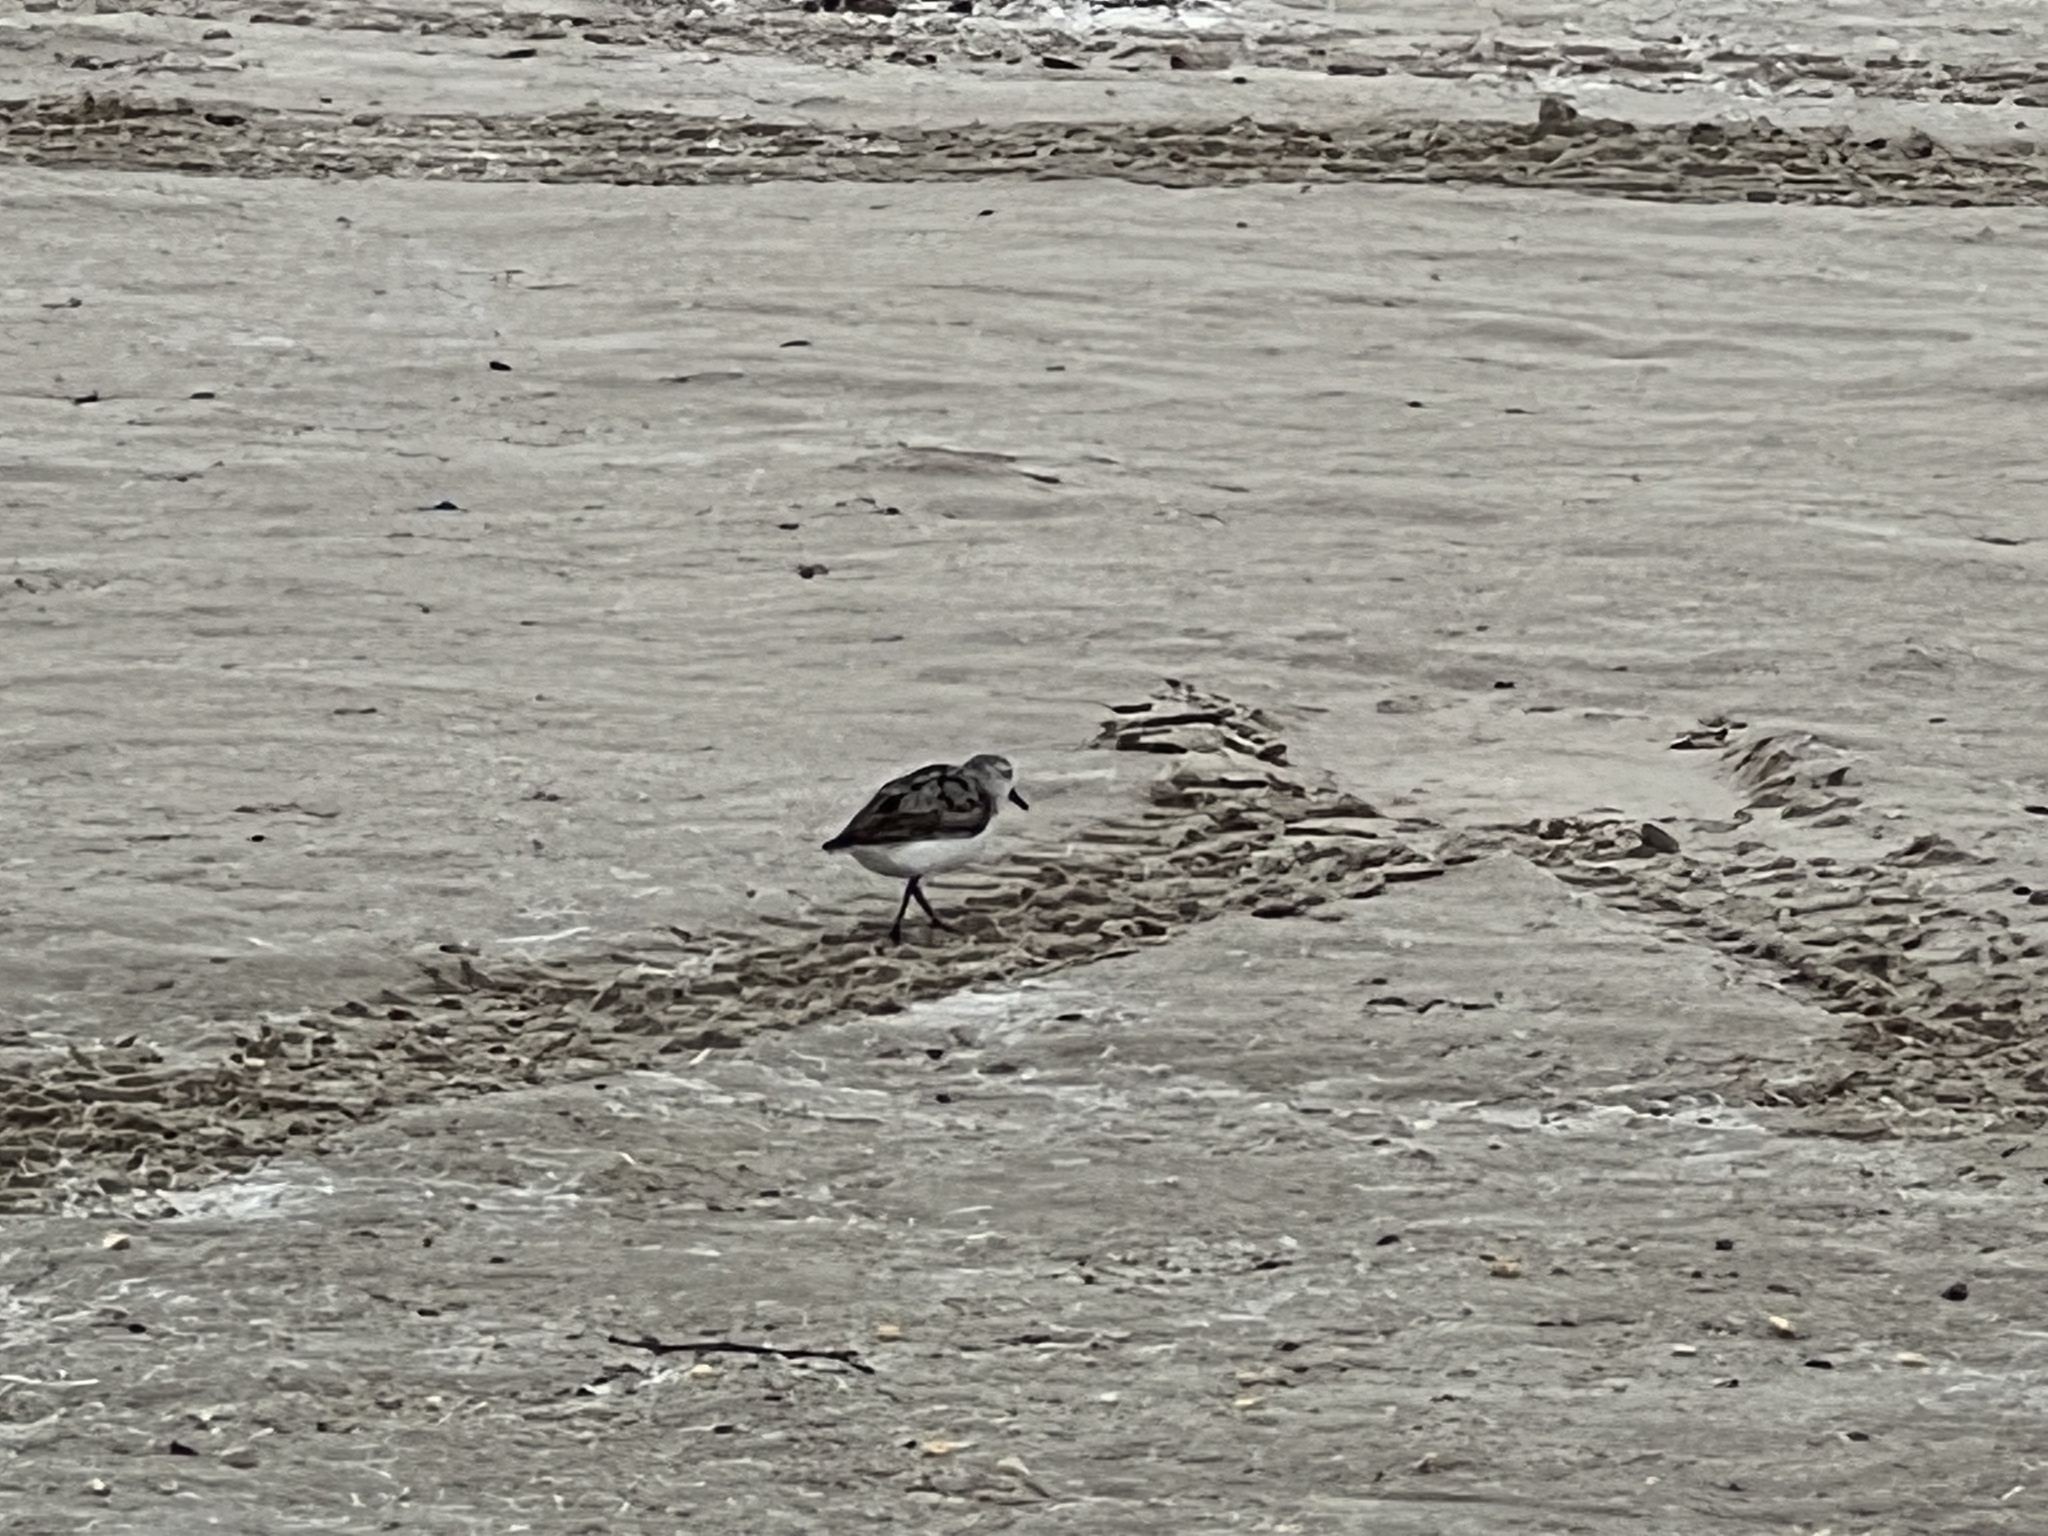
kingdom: Animalia
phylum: Chordata
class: Aves
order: Charadriiformes
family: Scolopacidae
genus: Calidris
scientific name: Calidris alba
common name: Sanderling
